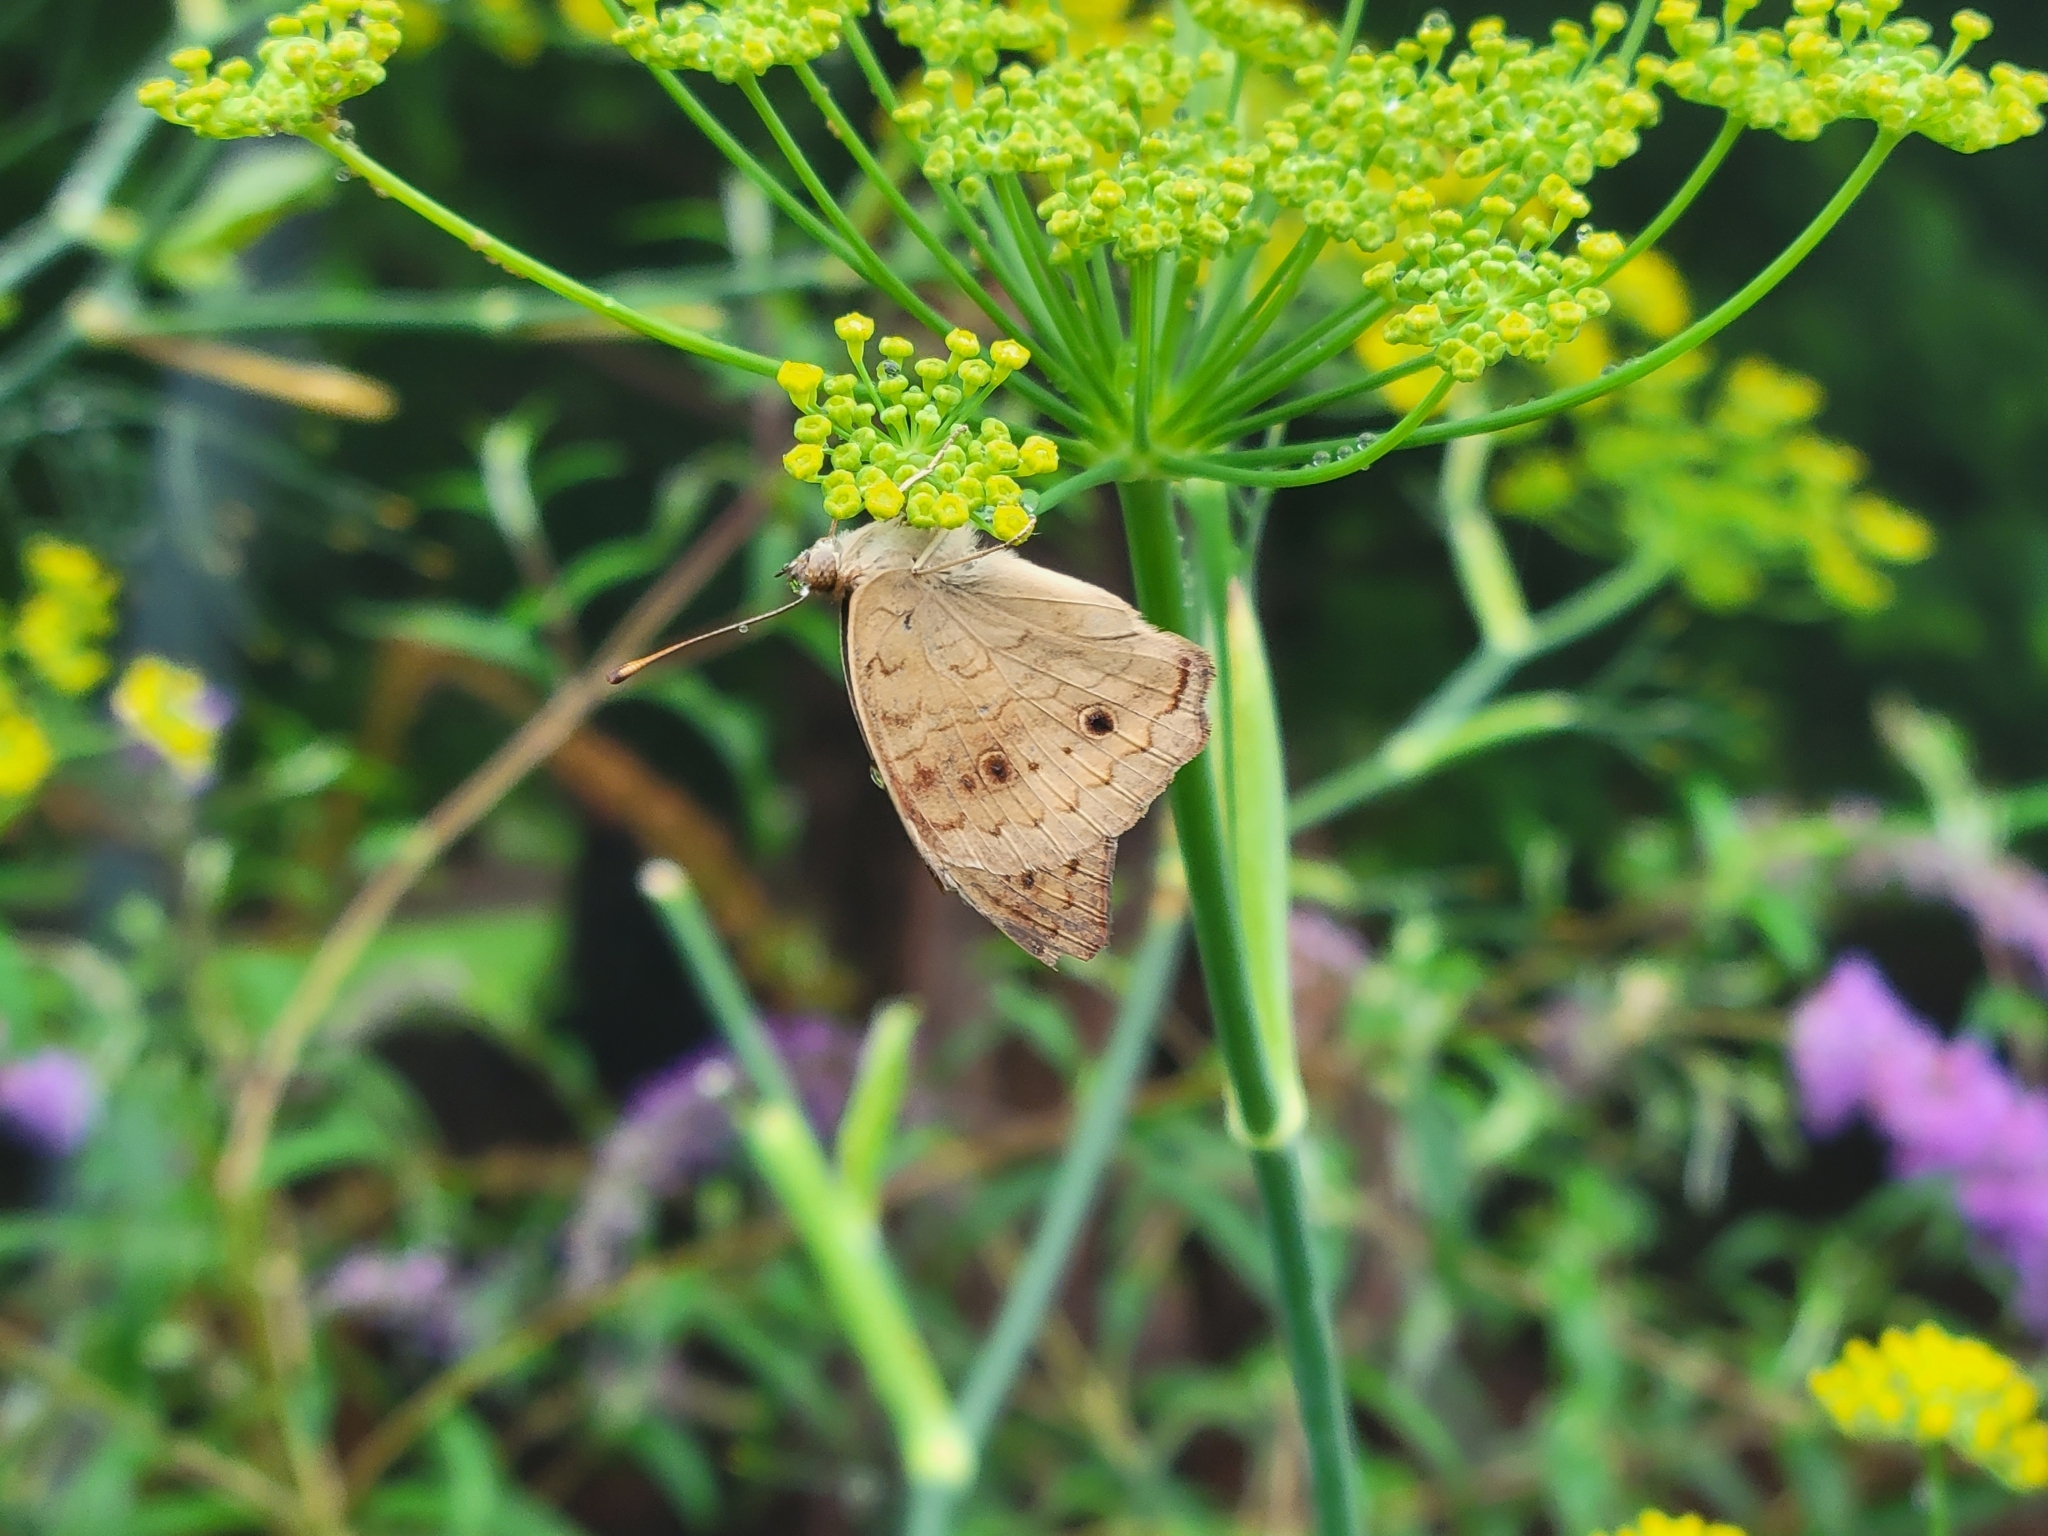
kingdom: Animalia
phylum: Arthropoda
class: Insecta
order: Lepidoptera
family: Nymphalidae
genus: Junonia
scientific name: Junonia coenia
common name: Common buckeye
